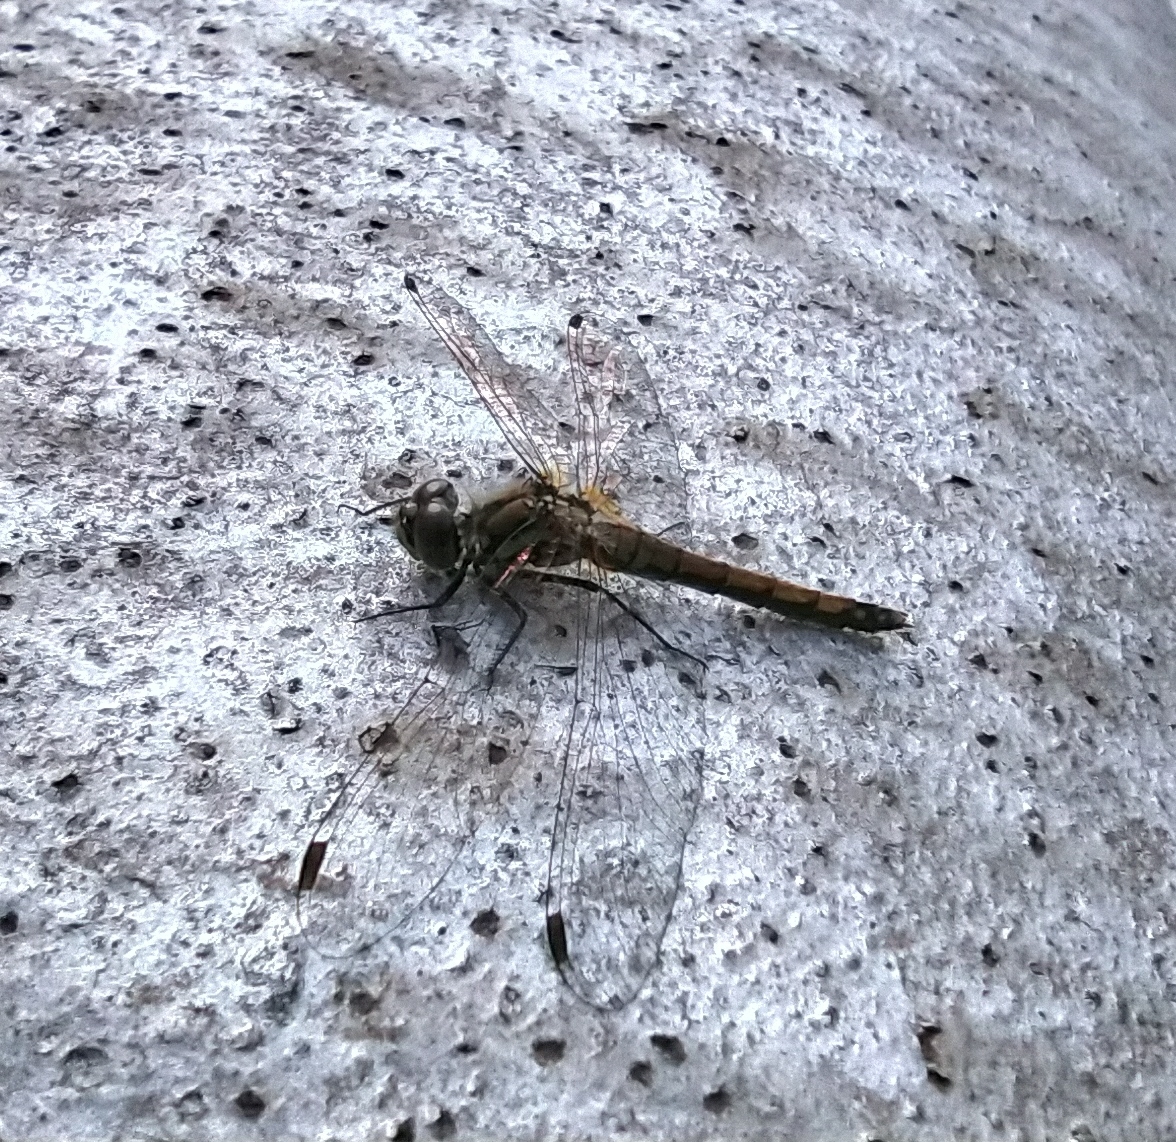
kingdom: Animalia
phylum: Arthropoda
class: Insecta
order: Odonata
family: Libellulidae
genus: Sympetrum
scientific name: Sympetrum danae
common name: Black darter
